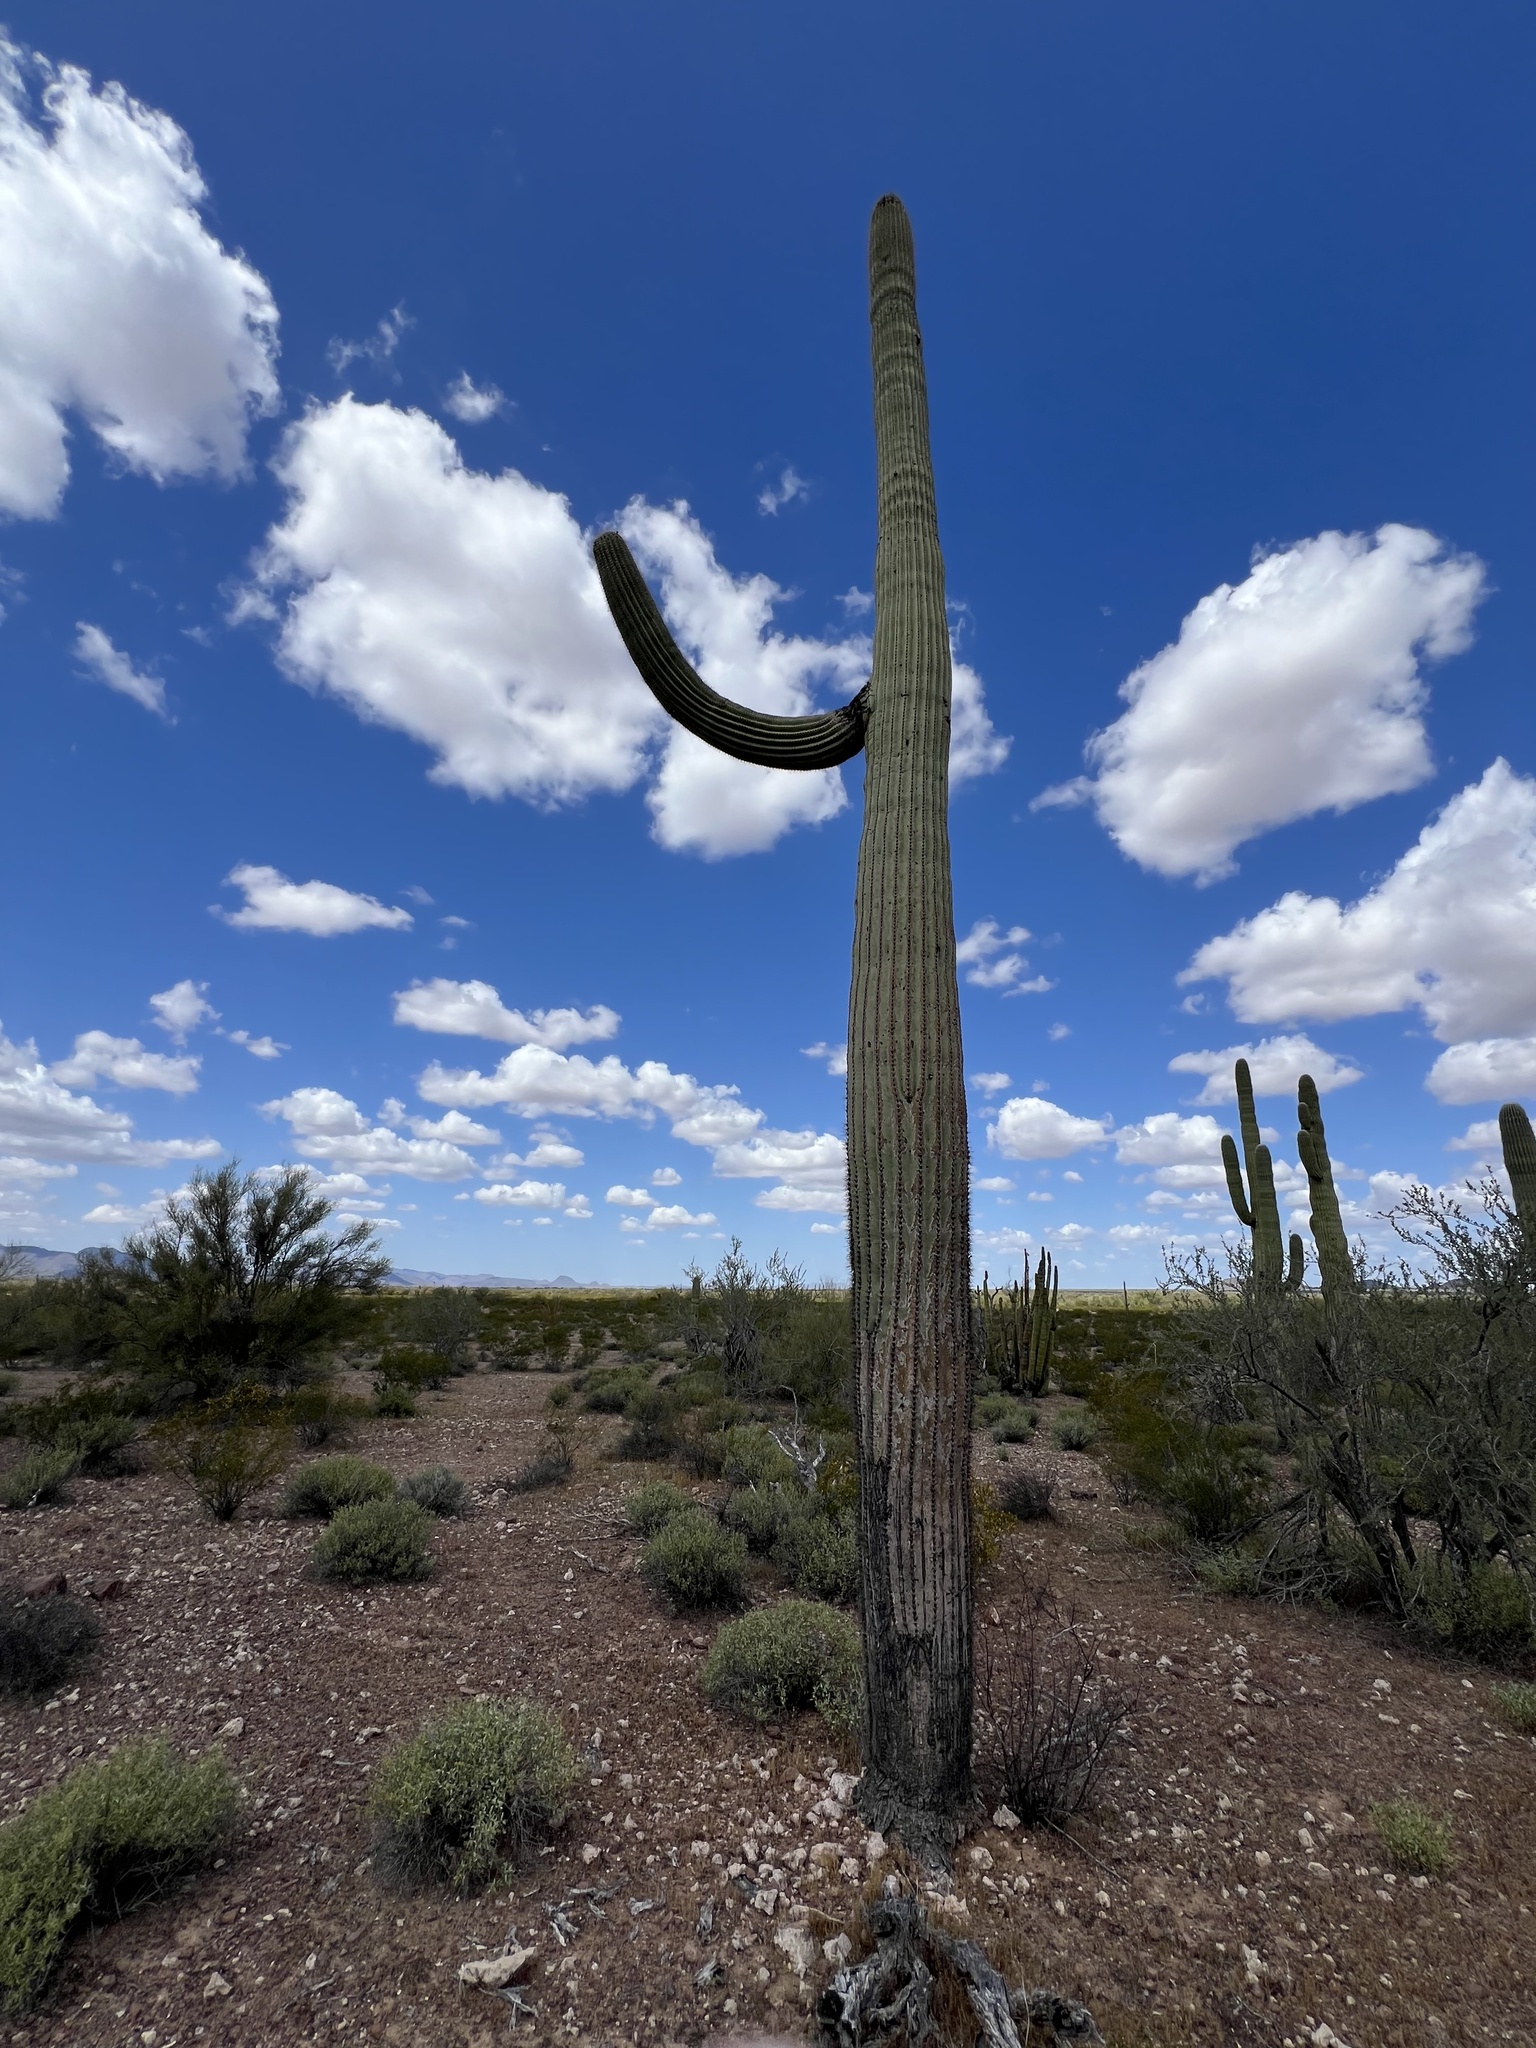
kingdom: Plantae
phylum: Tracheophyta
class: Magnoliopsida
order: Caryophyllales
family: Cactaceae
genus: Carnegiea
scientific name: Carnegiea gigantea
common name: Saguaro
